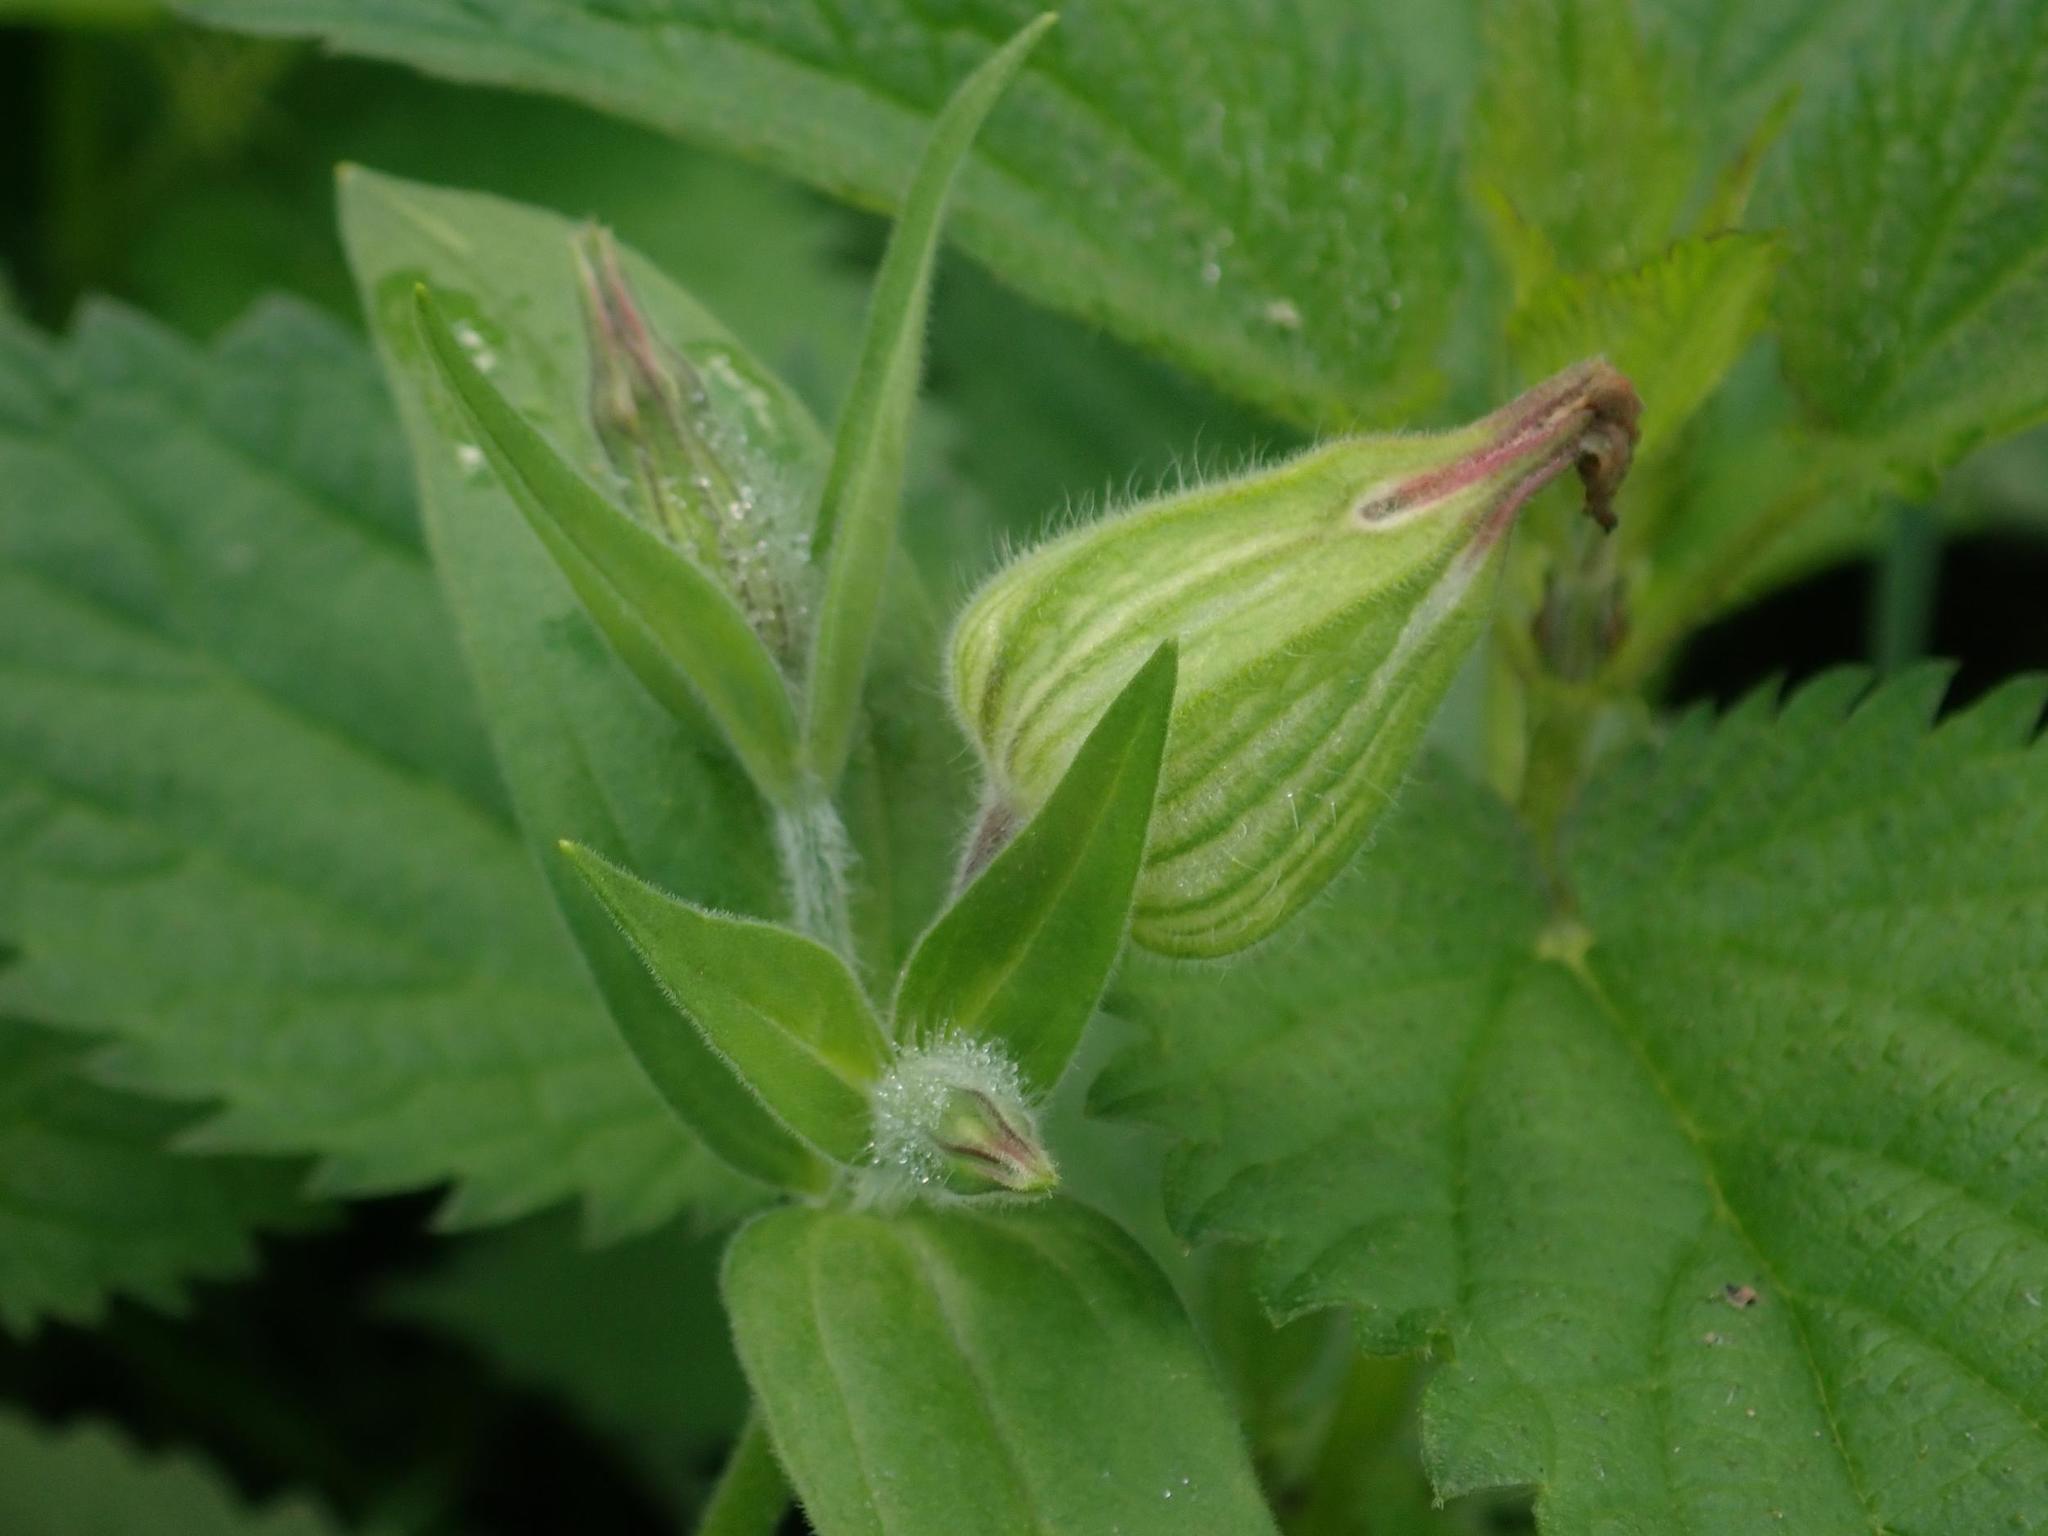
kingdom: Plantae
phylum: Tracheophyta
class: Magnoliopsida
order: Caryophyllales
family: Caryophyllaceae
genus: Silene
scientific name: Silene latifolia
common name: White campion
